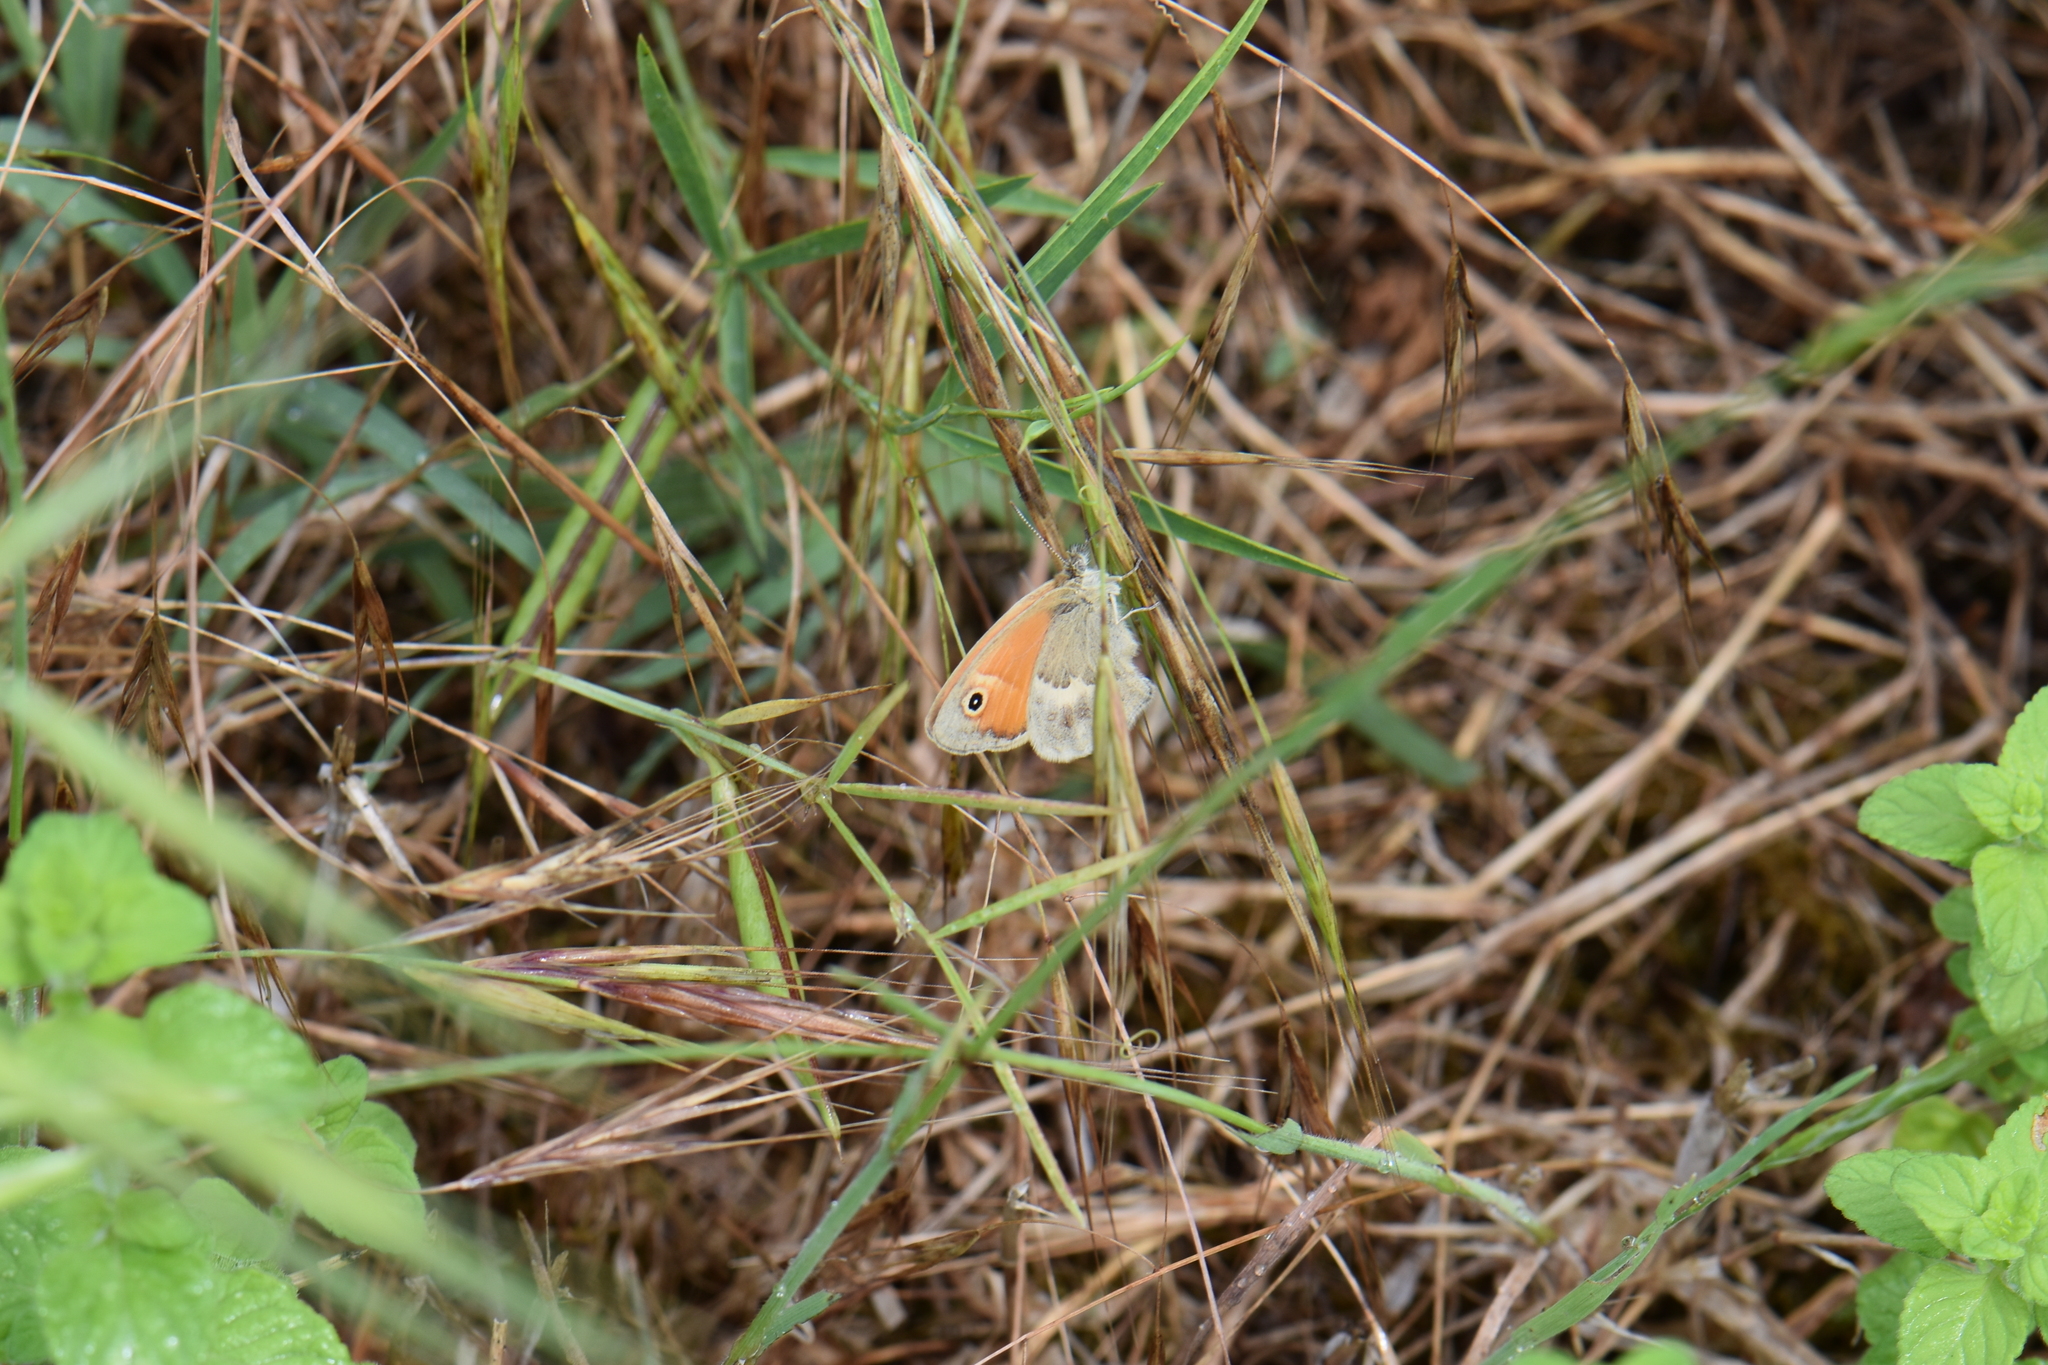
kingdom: Animalia
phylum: Arthropoda
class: Insecta
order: Lepidoptera
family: Nymphalidae
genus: Coenonympha
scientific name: Coenonympha pamphilus
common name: Small heath
